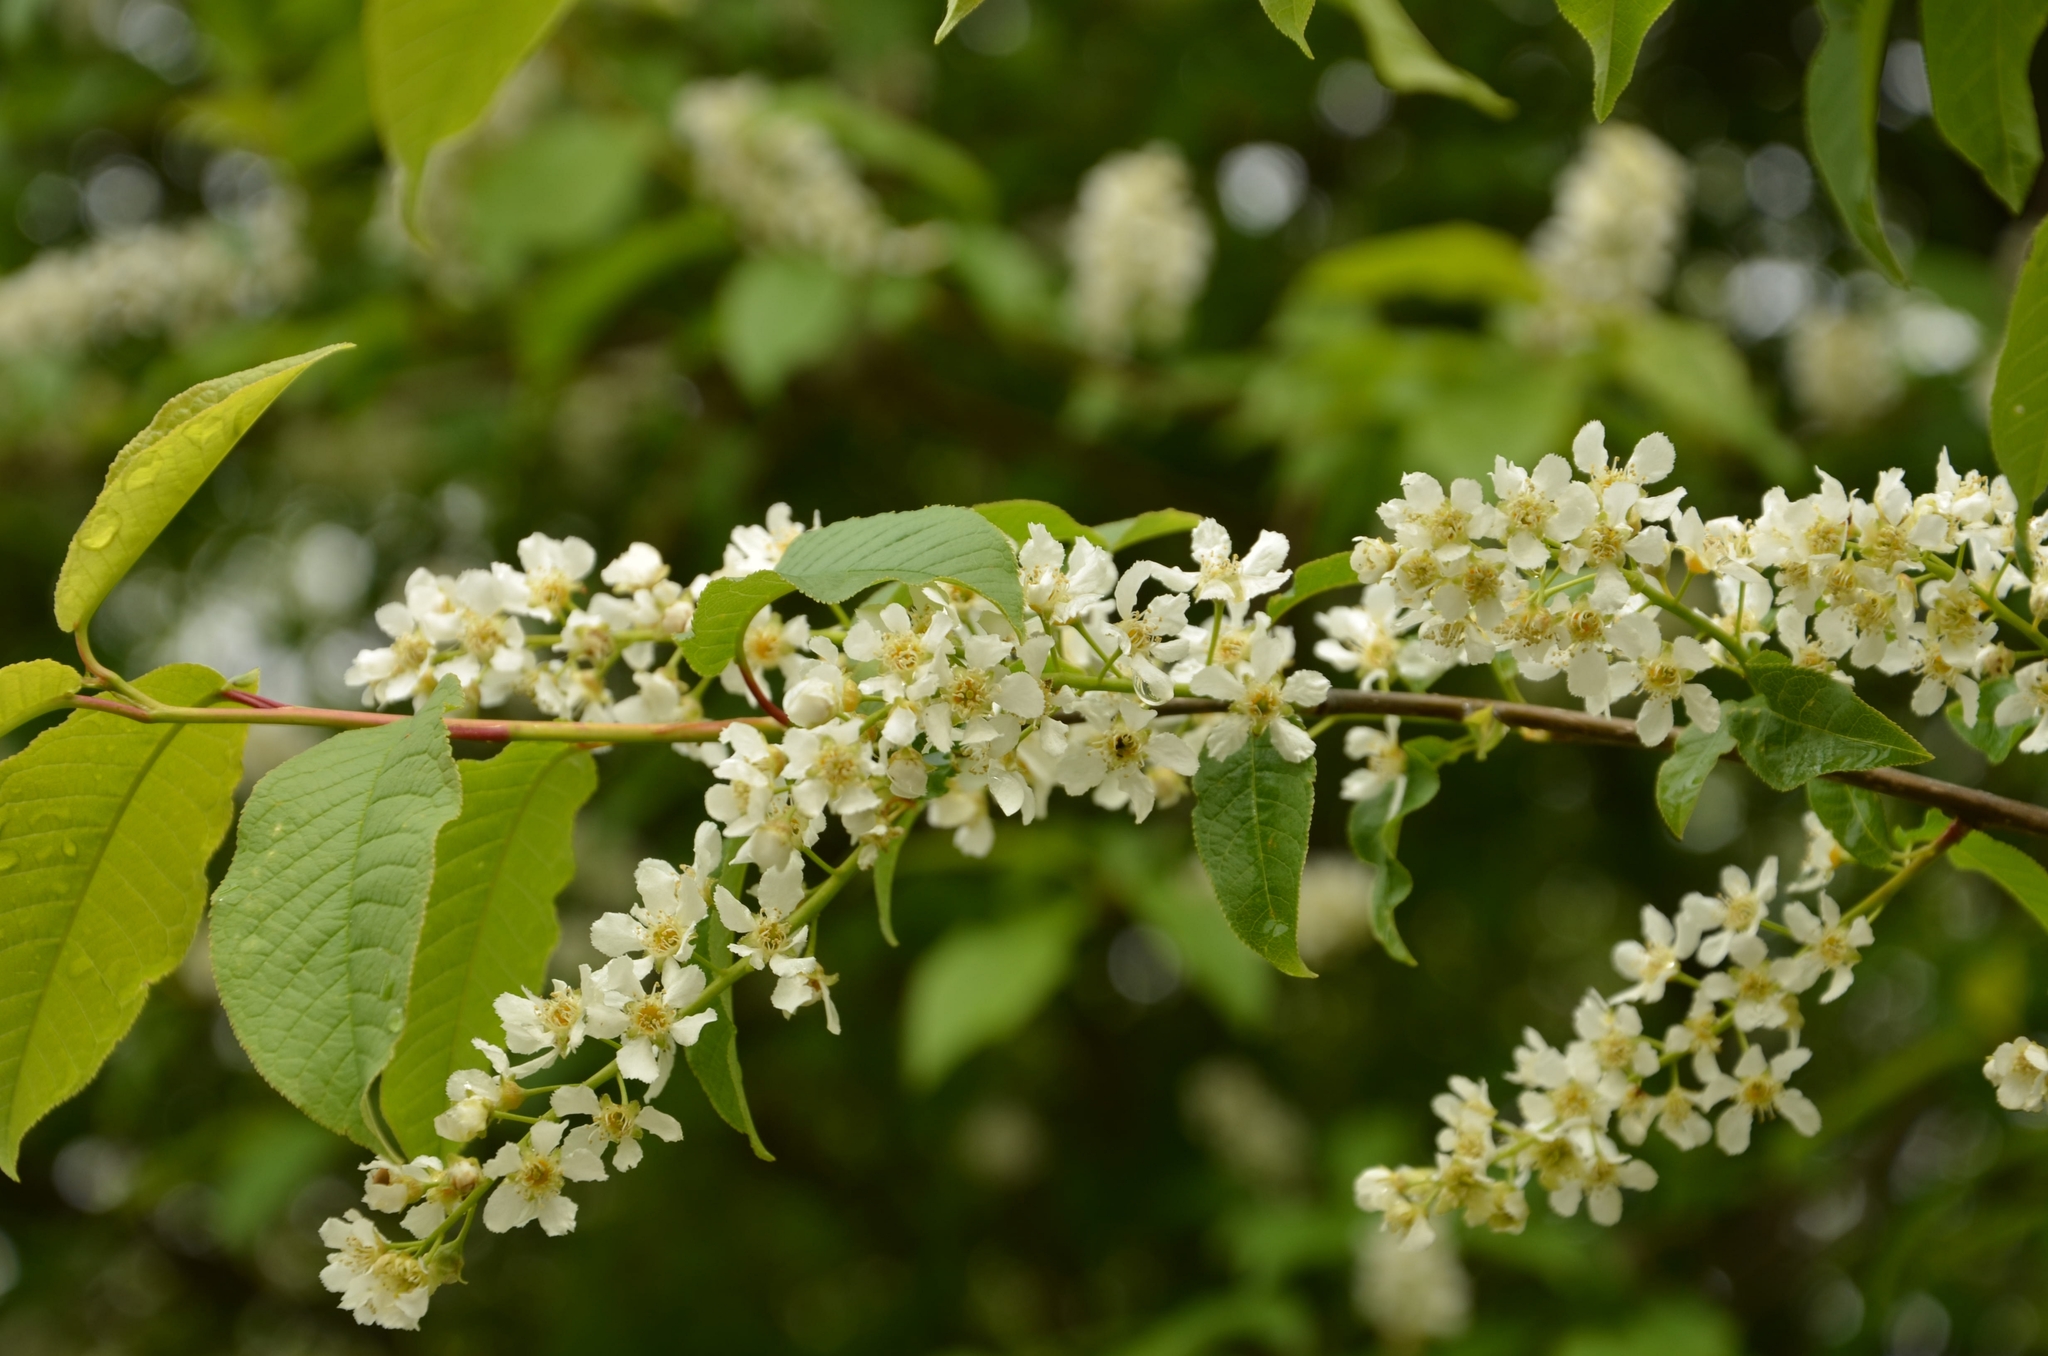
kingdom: Plantae
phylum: Tracheophyta
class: Magnoliopsida
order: Rosales
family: Rosaceae
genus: Prunus
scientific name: Prunus padus
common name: Bird cherry
